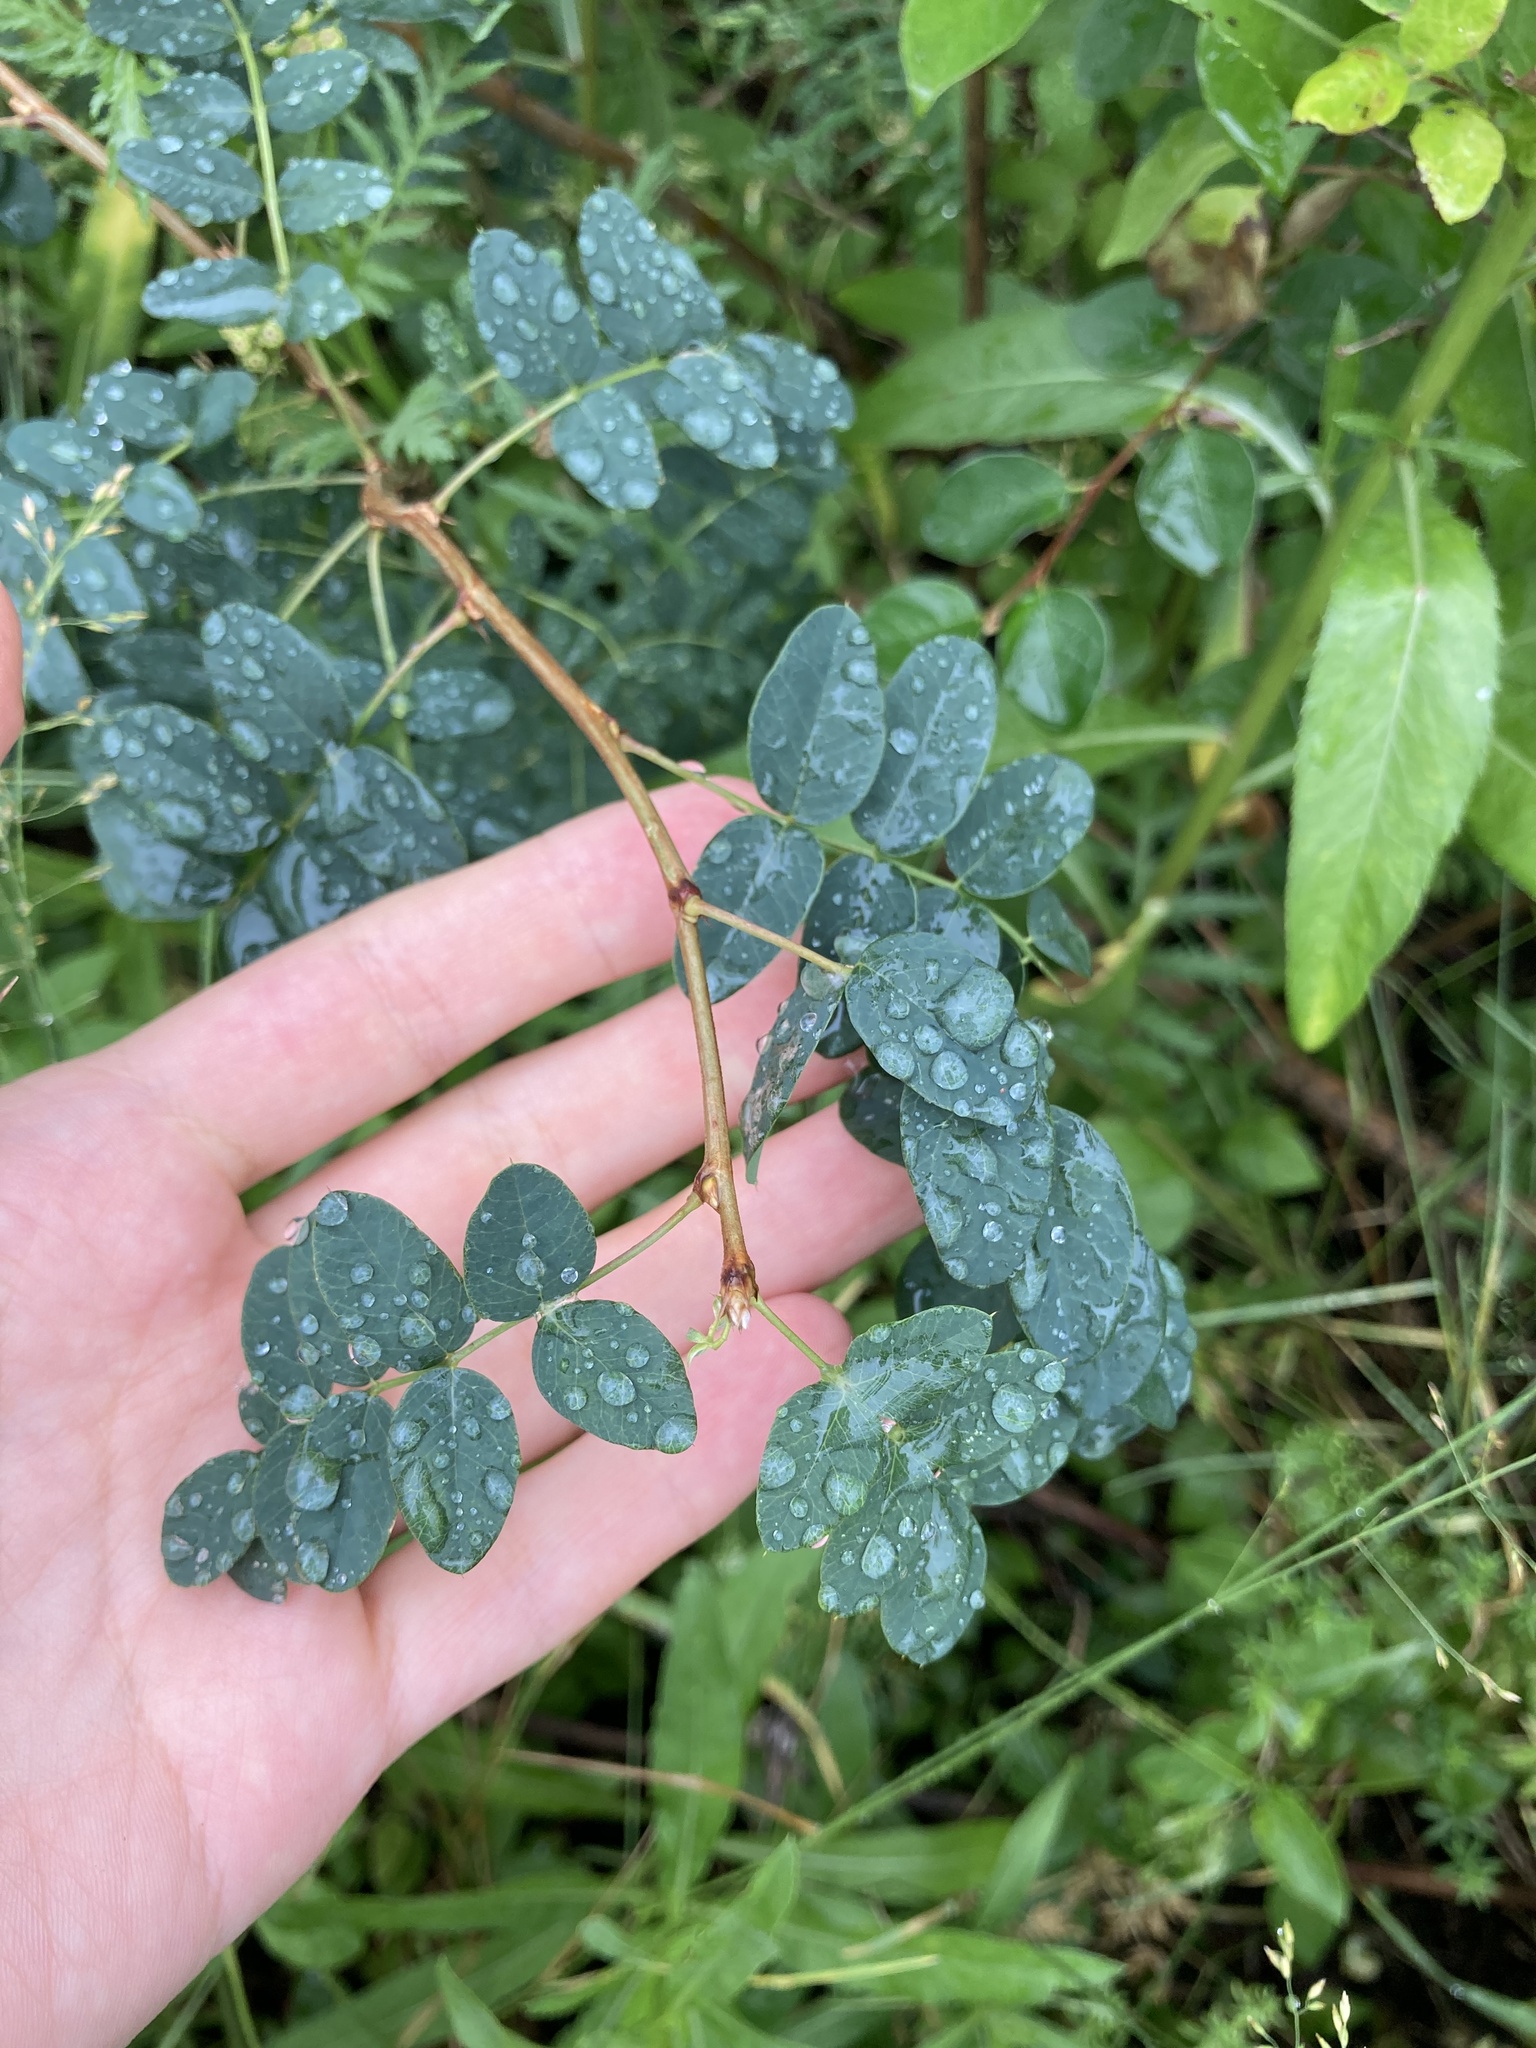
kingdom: Plantae
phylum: Tracheophyta
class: Magnoliopsida
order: Fabales
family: Fabaceae
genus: Caragana
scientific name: Caragana arborescens
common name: Siberian peashrub
